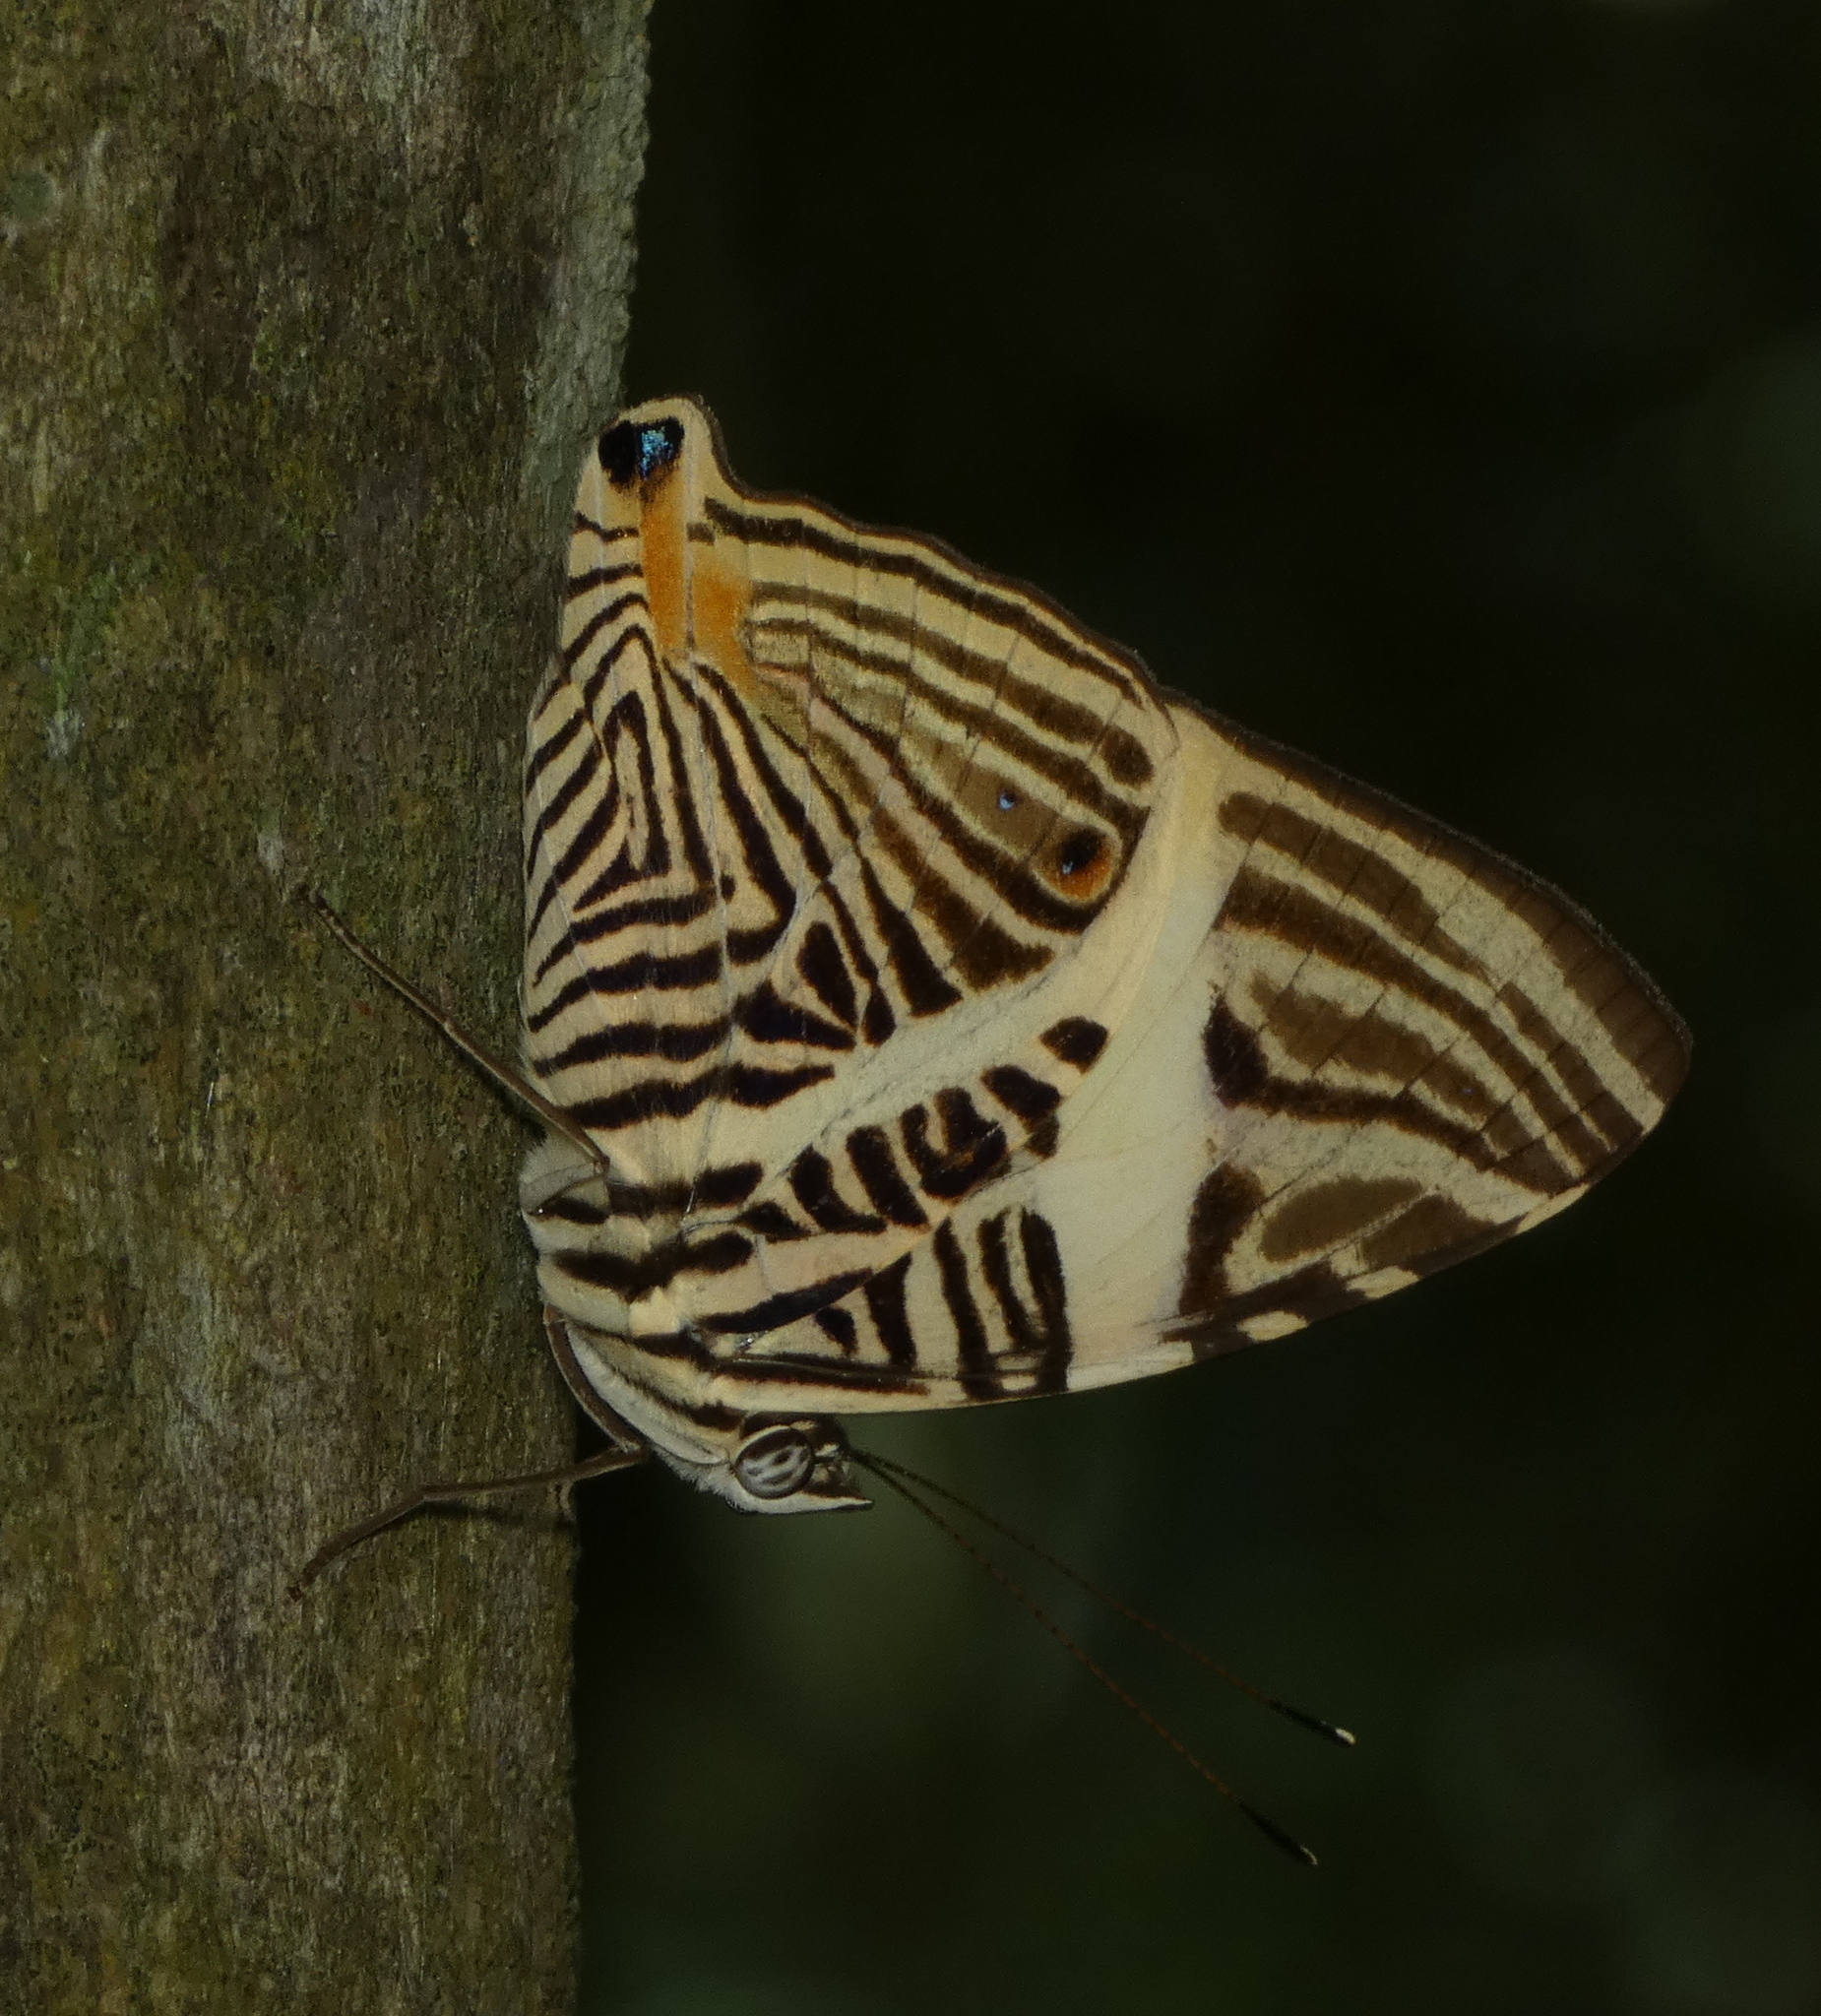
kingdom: Animalia
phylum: Arthropoda
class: Insecta
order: Lepidoptera
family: Nymphalidae
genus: Colobura
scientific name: Colobura dirce
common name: Dirce beauty
